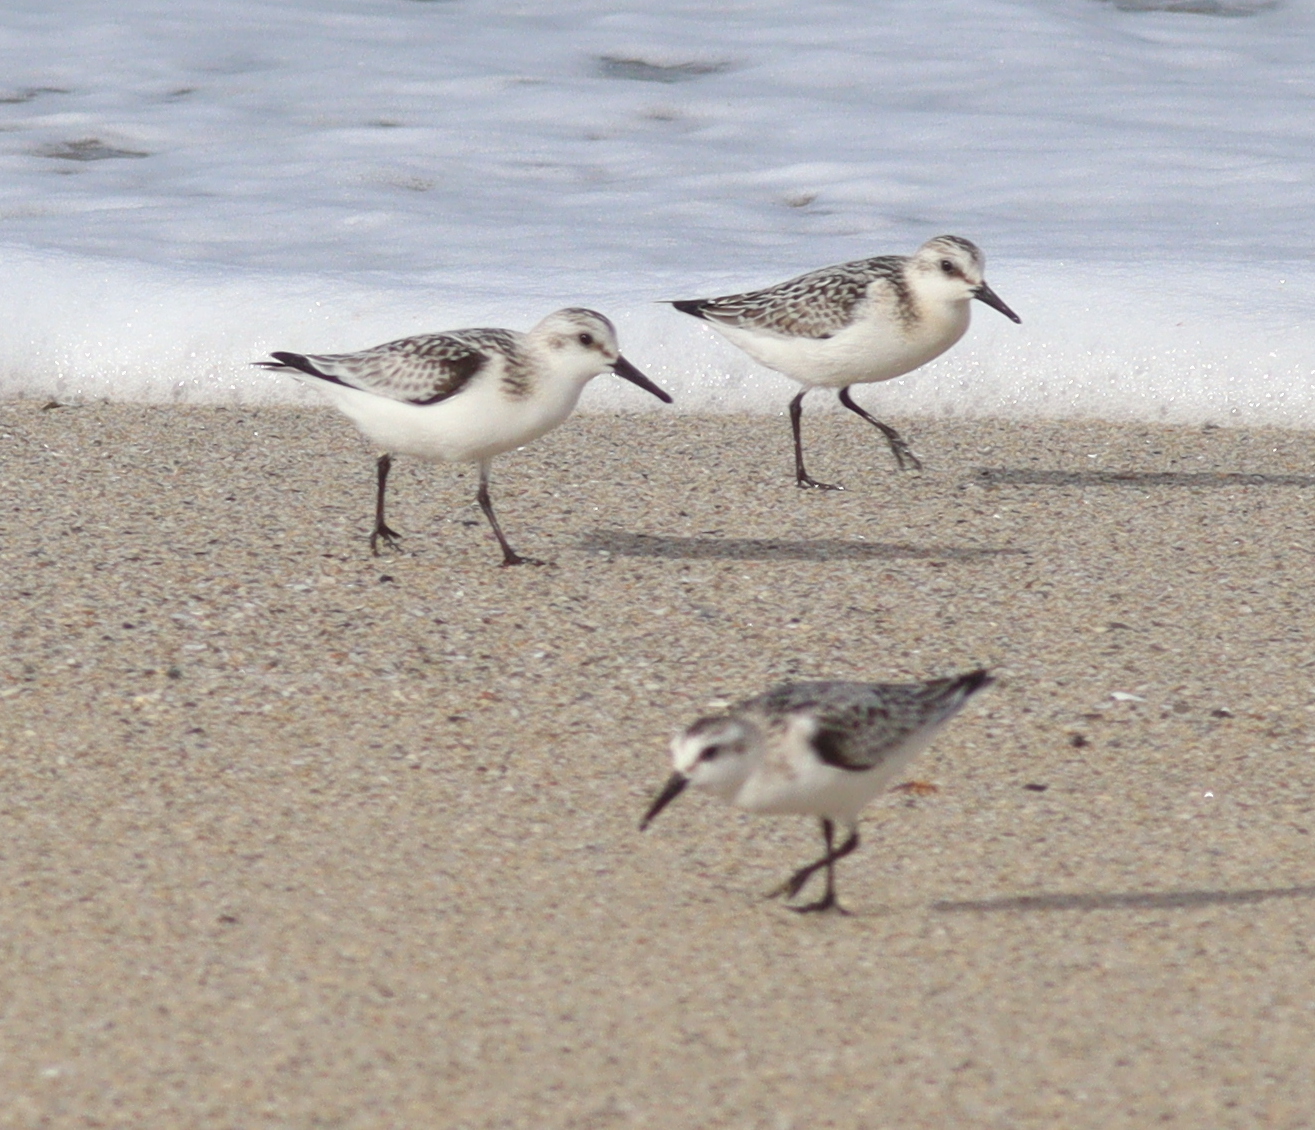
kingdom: Animalia
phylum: Chordata
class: Aves
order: Charadriiformes
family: Scolopacidae
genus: Calidris
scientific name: Calidris alba
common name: Sanderling
